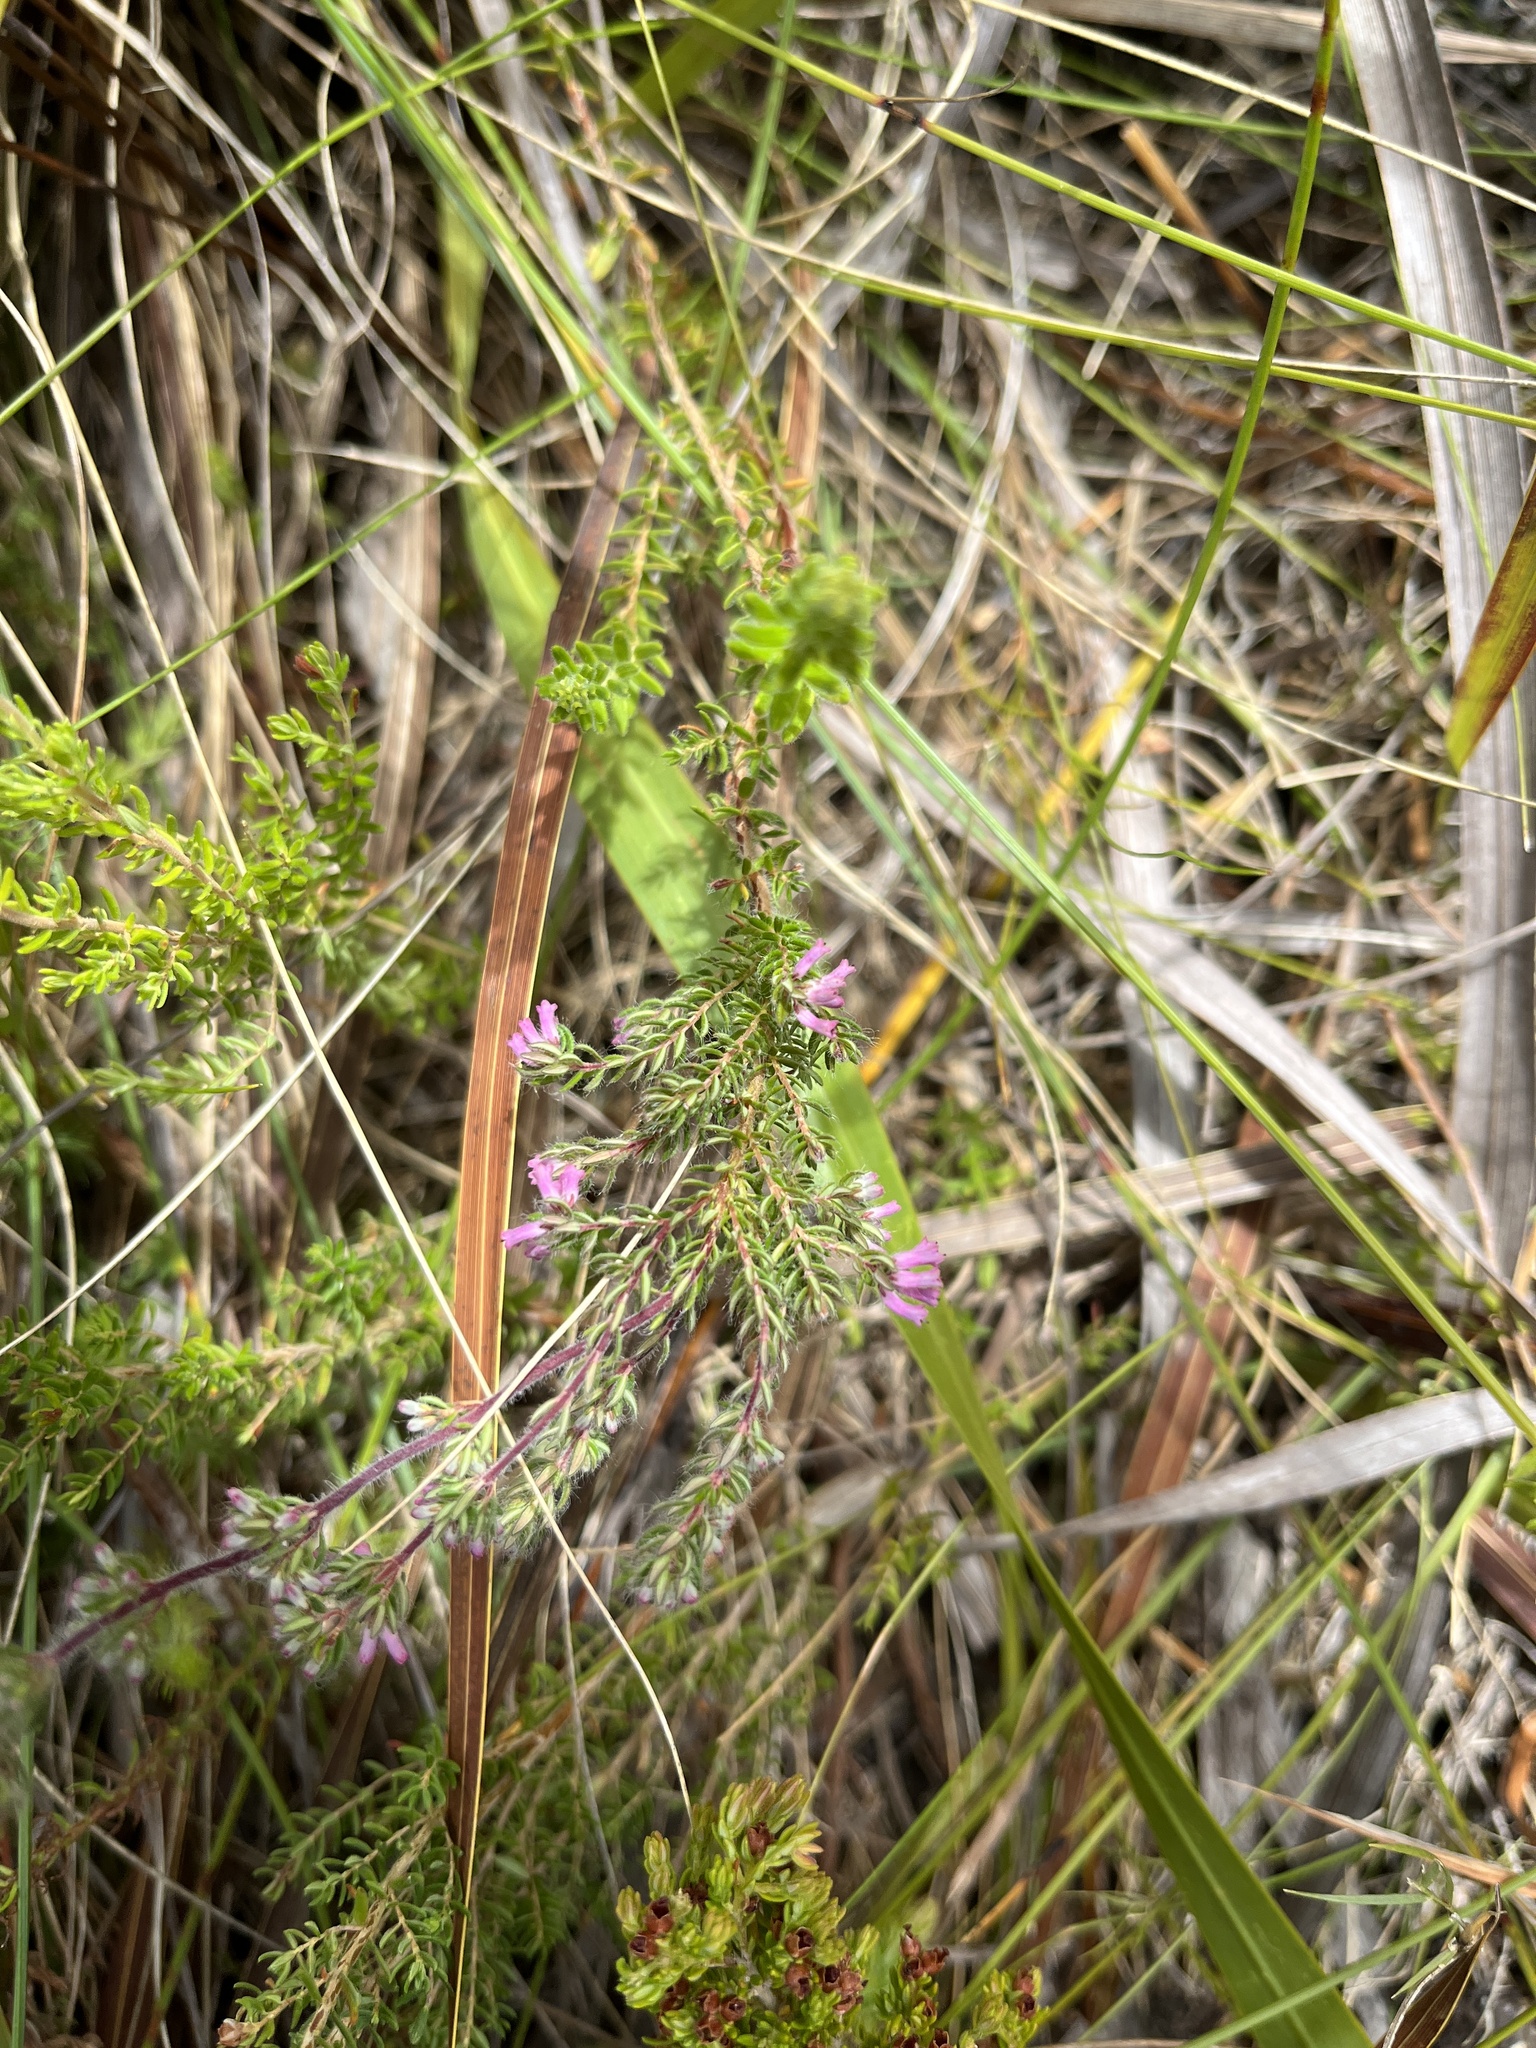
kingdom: Plantae
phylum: Tracheophyta
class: Magnoliopsida
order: Ericales
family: Ericaceae
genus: Erica
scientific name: Erica longimontana
